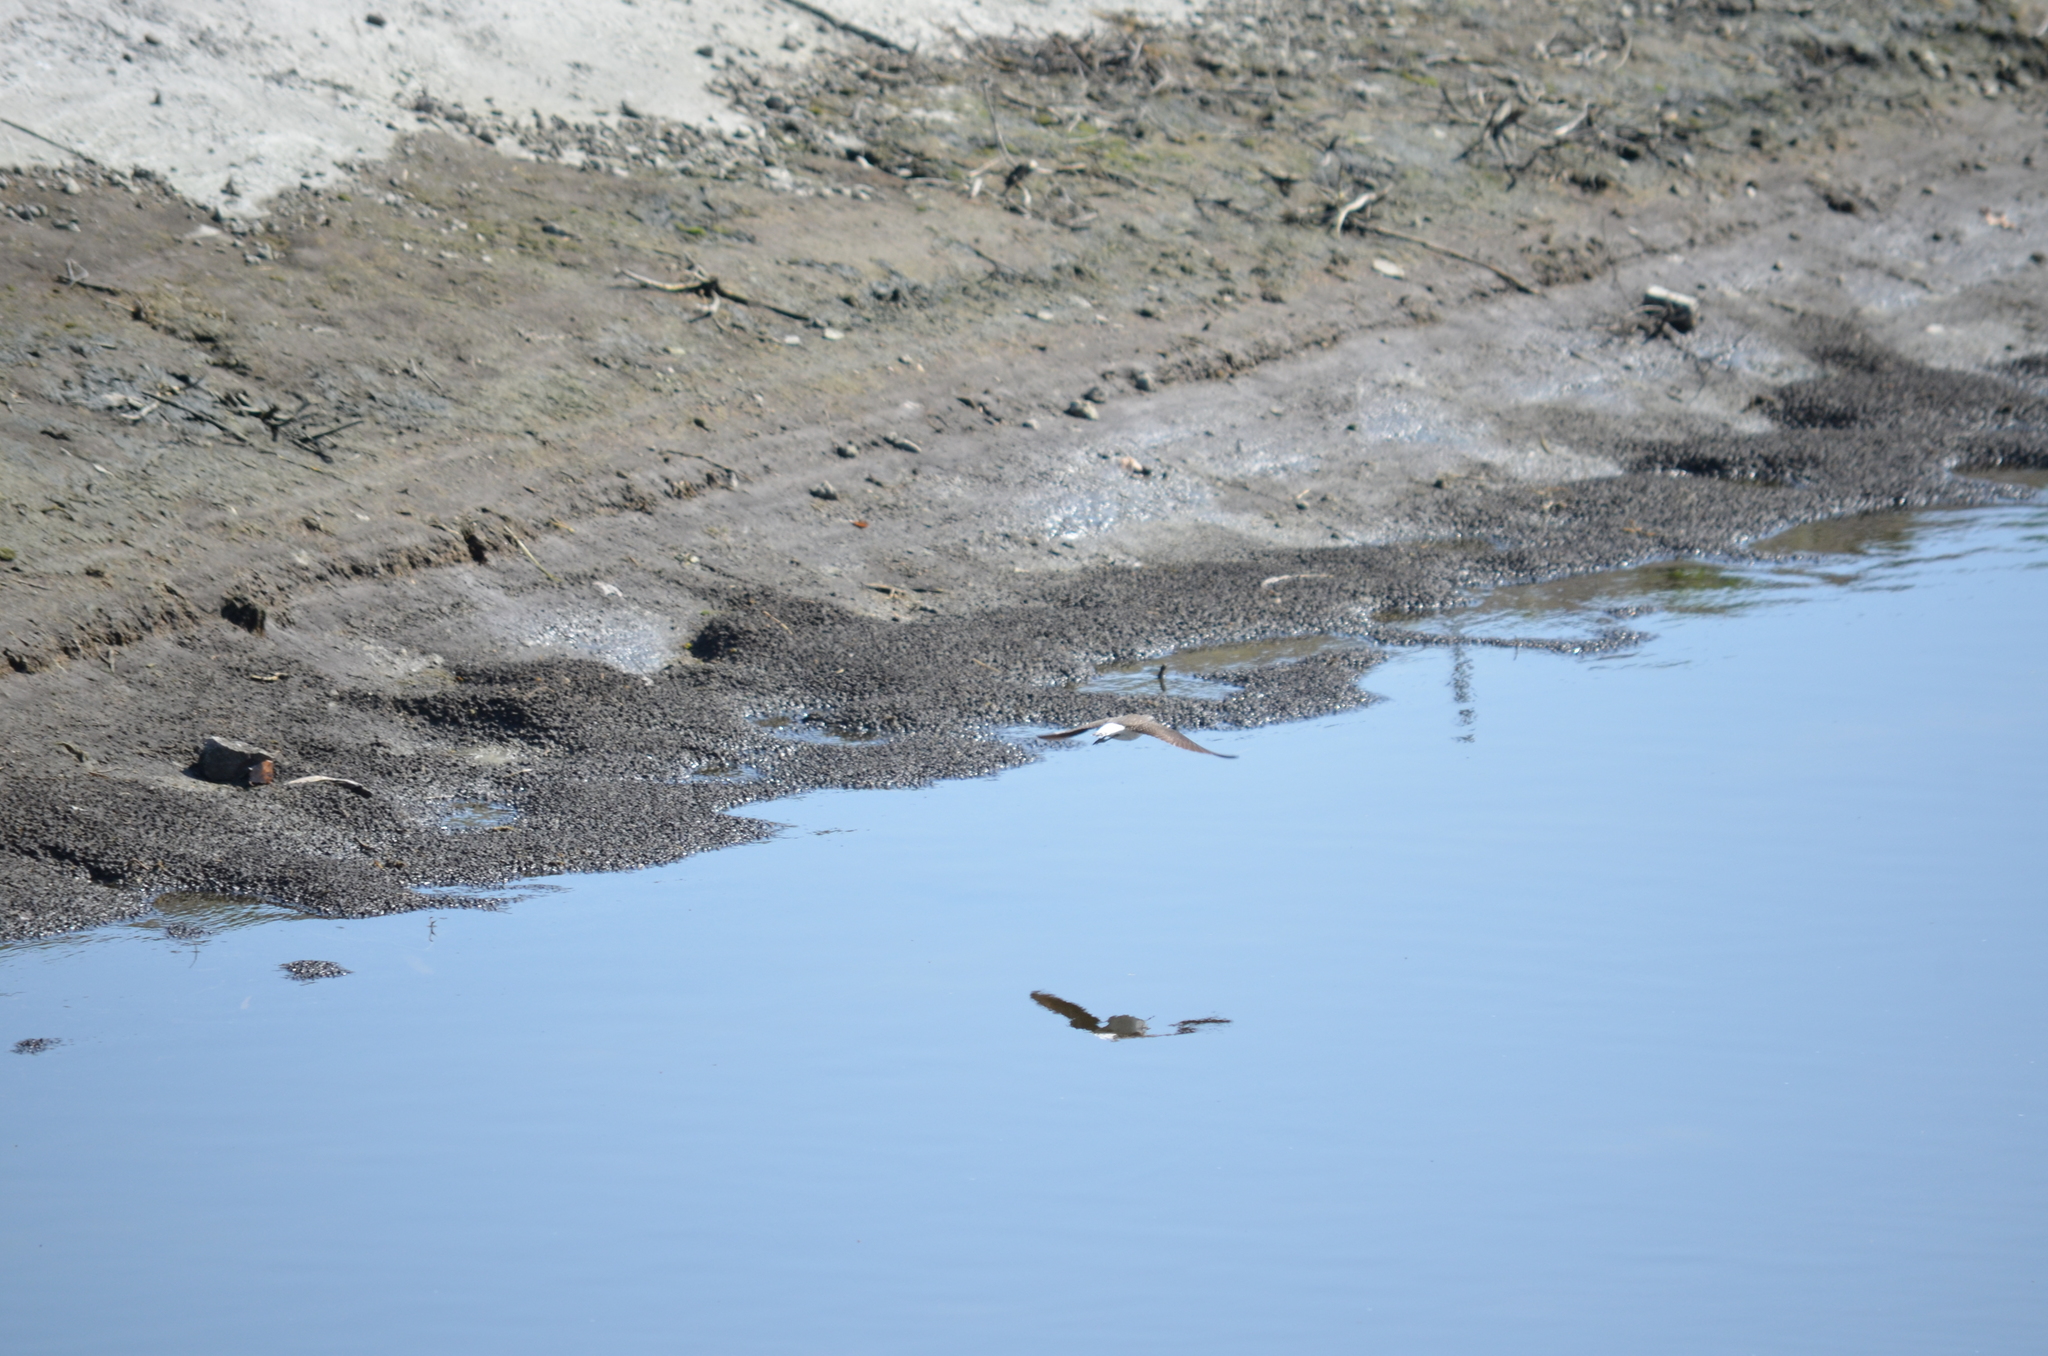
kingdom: Animalia
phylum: Chordata
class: Aves
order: Charadriiformes
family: Scolopacidae
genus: Tringa
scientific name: Tringa ochropus
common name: Green sandpiper
